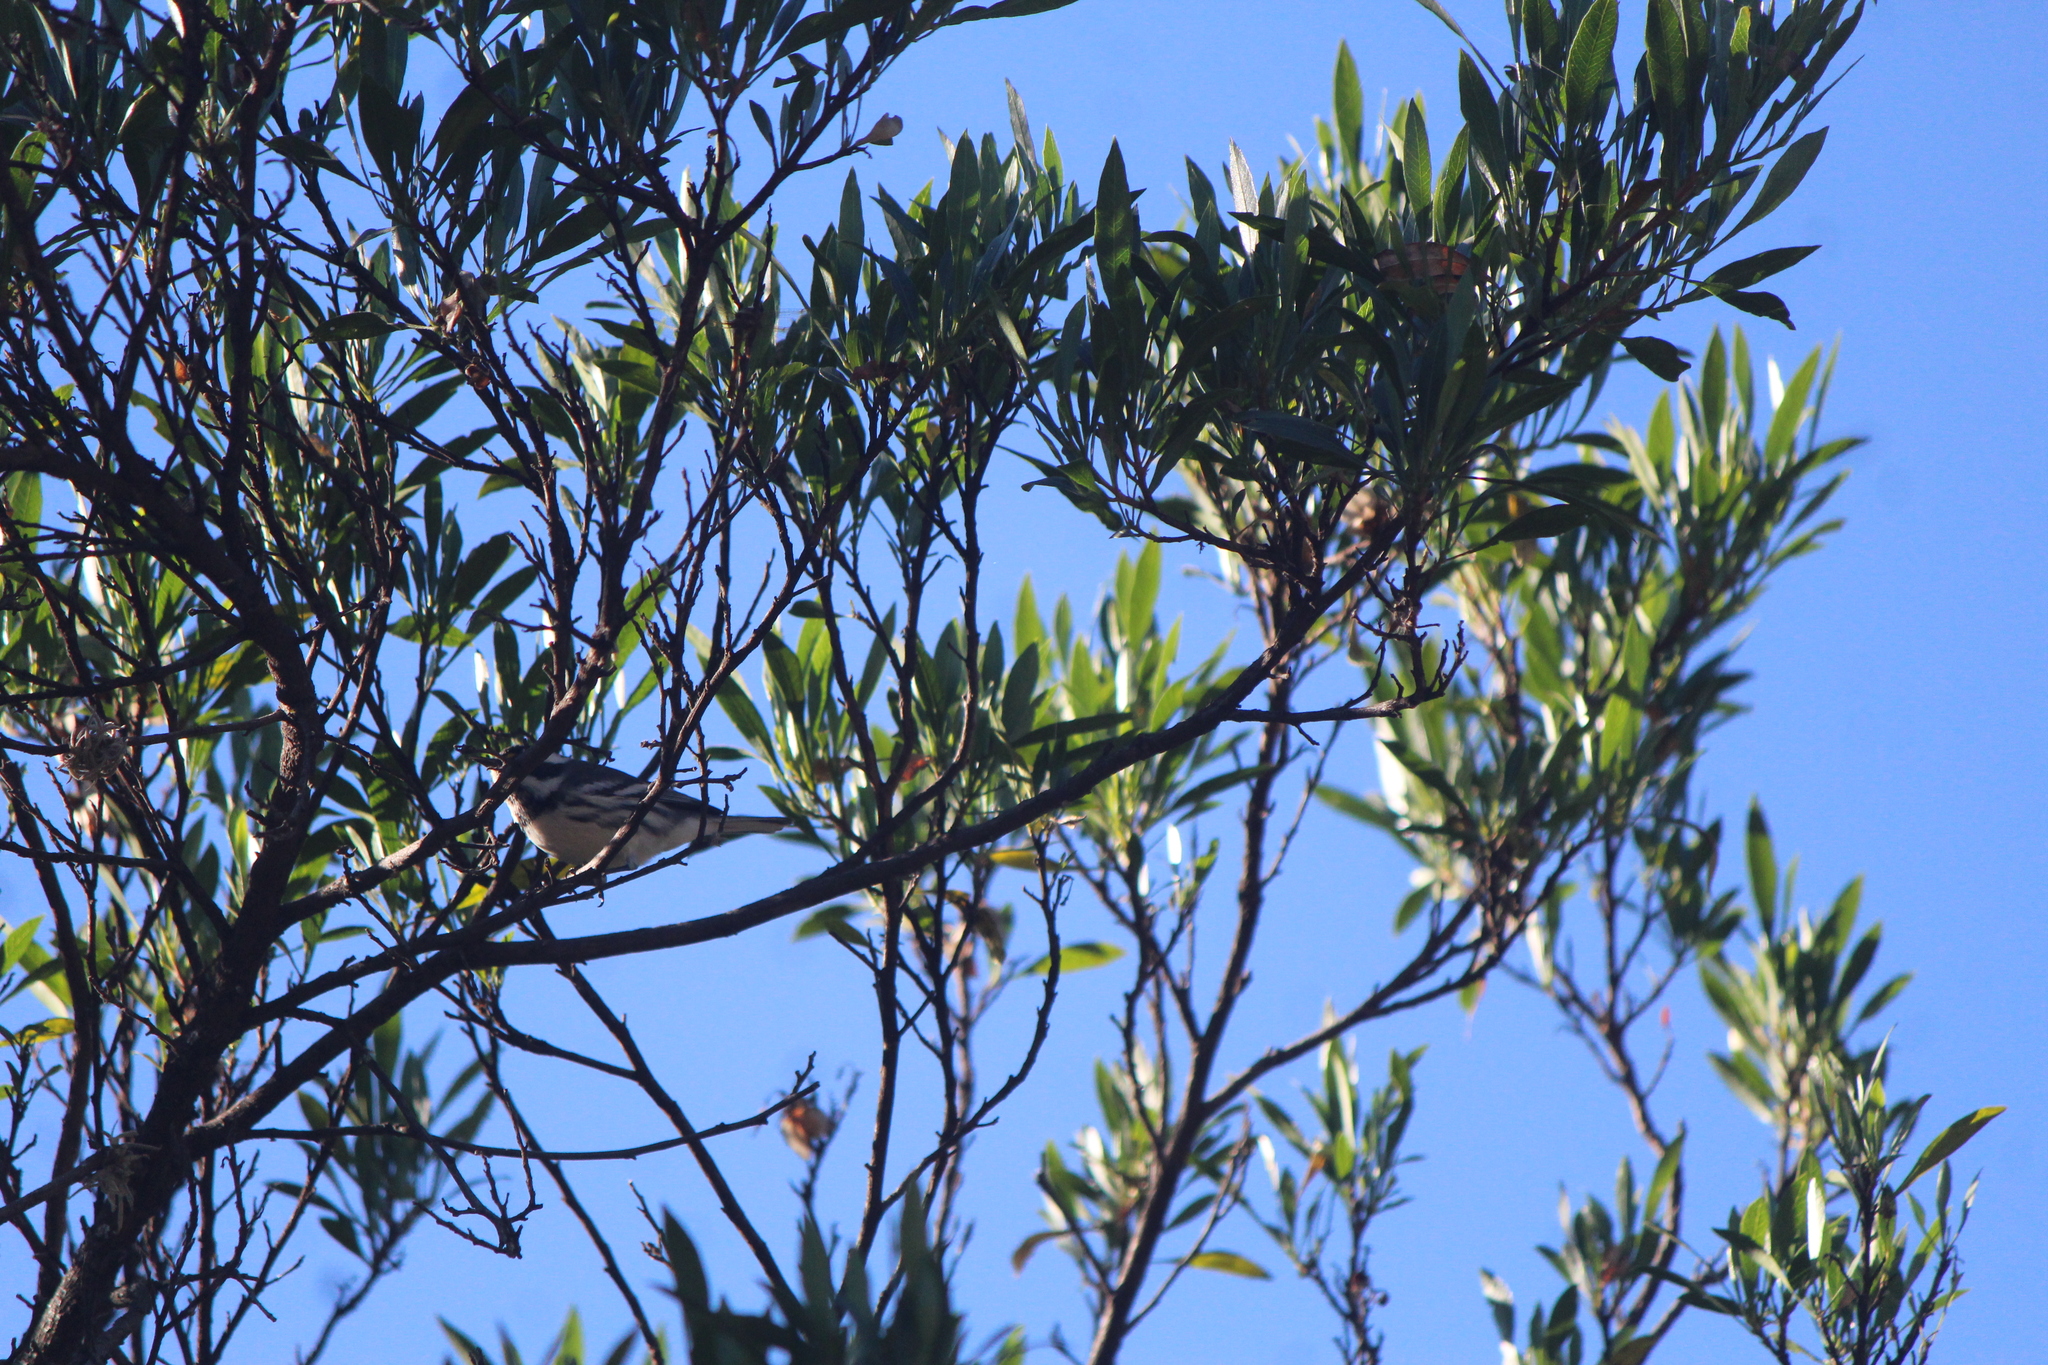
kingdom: Animalia
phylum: Chordata
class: Aves
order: Passeriformes
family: Parulidae
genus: Setophaga
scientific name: Setophaga nigrescens
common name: Black-throated gray warbler
